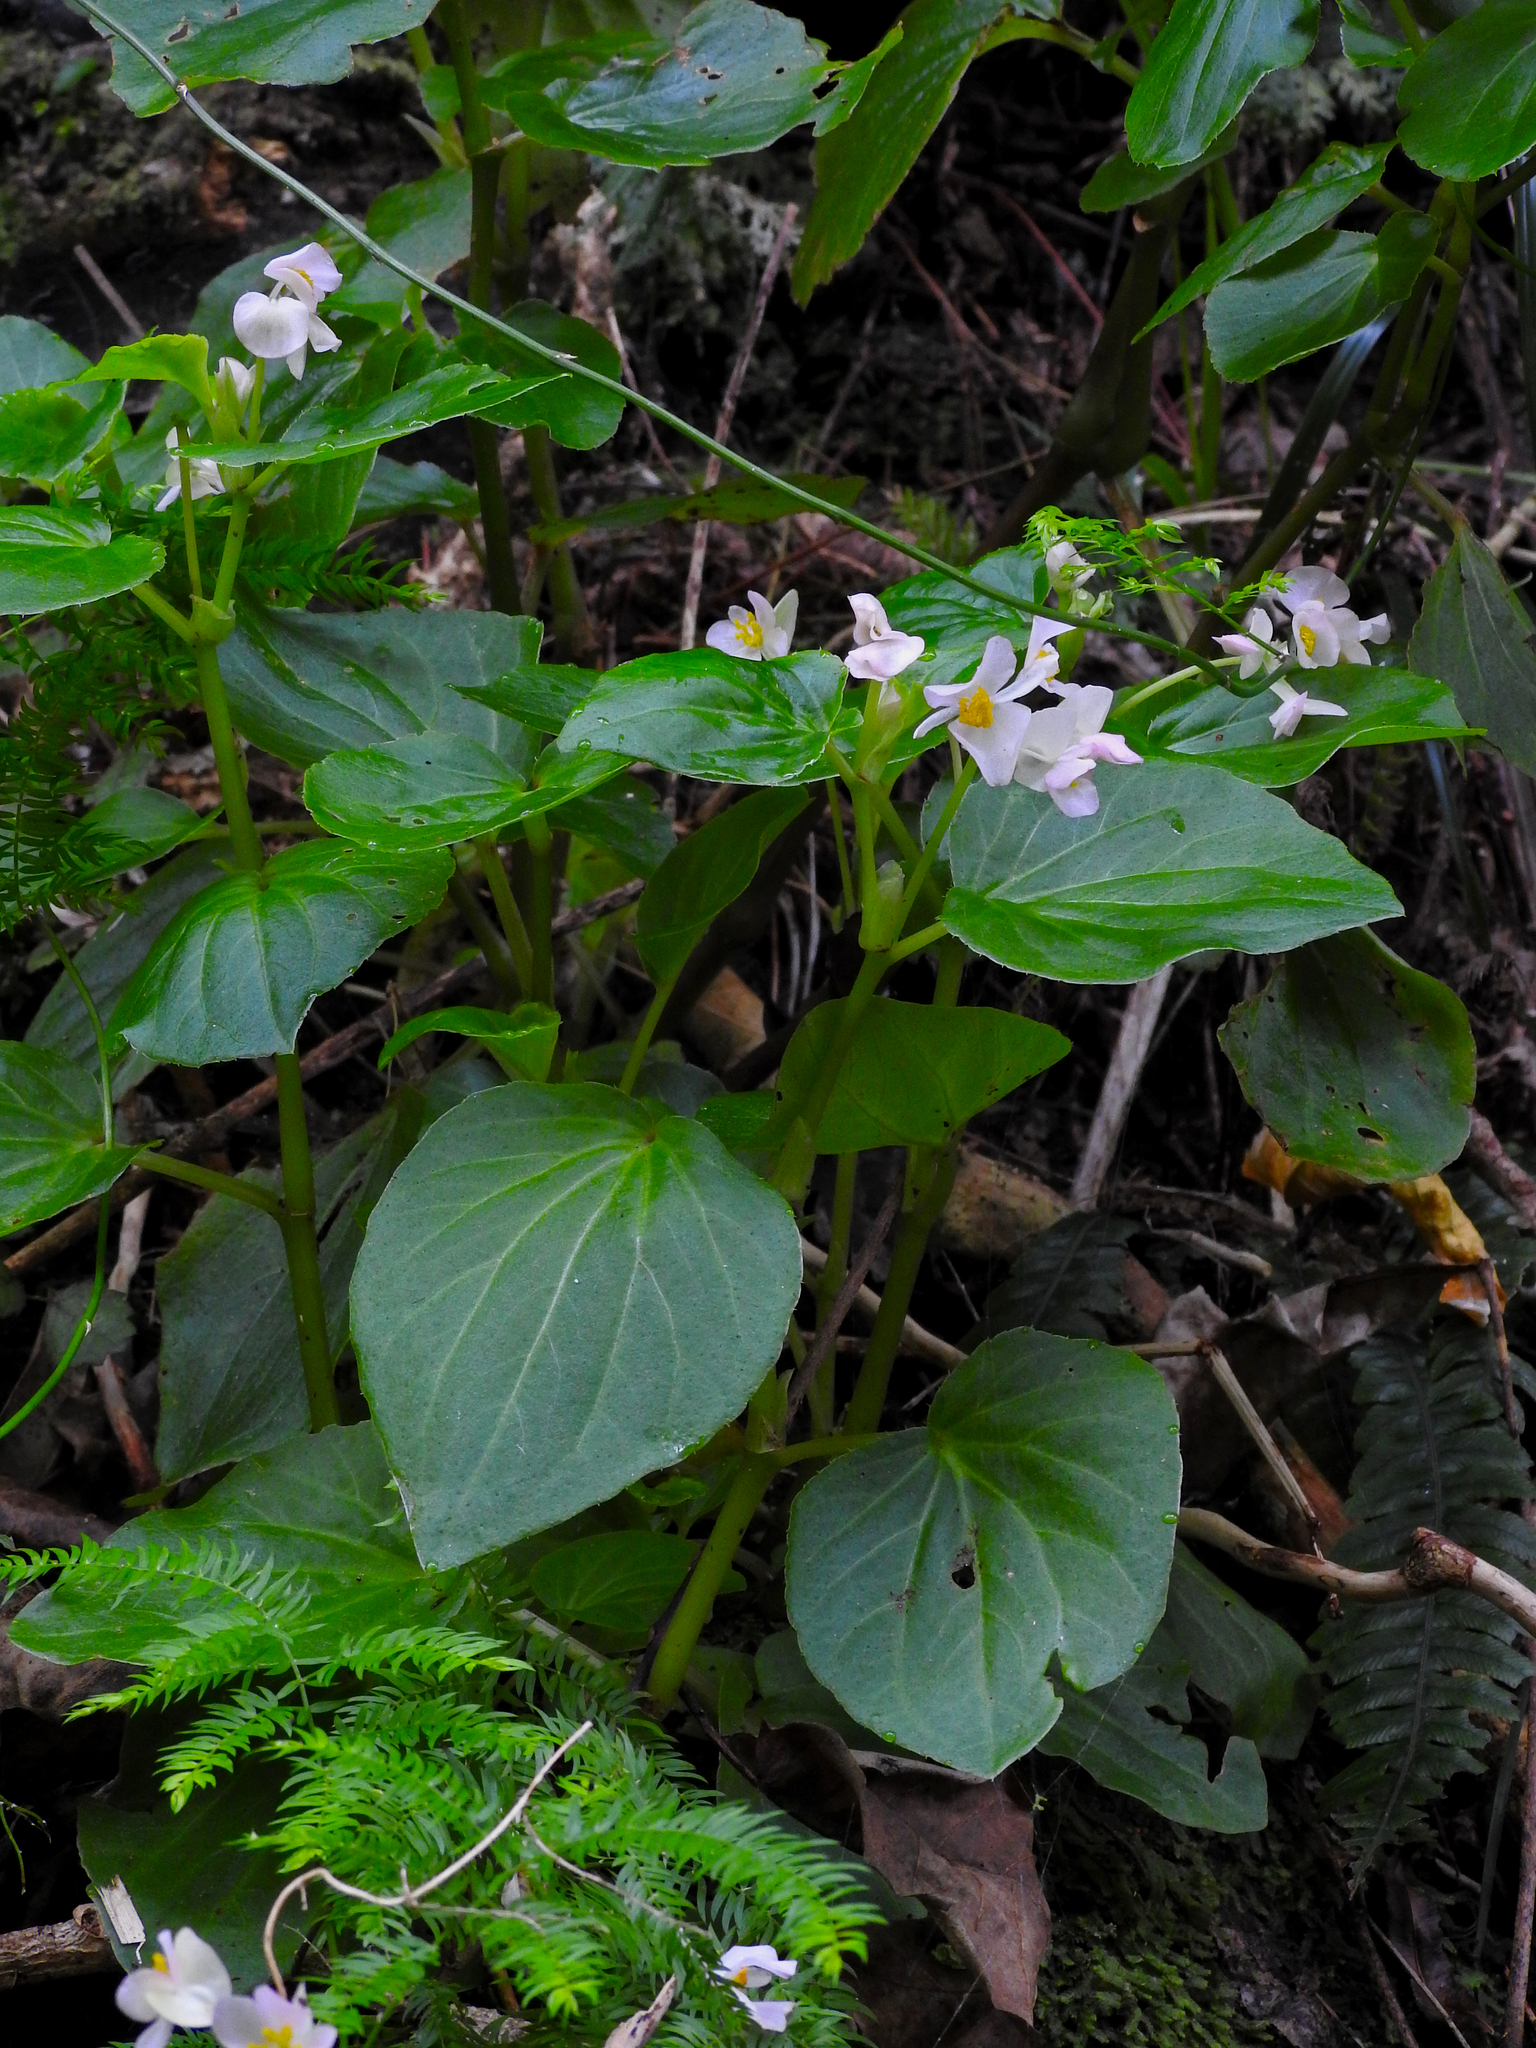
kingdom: Plantae
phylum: Tracheophyta
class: Magnoliopsida
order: Cucurbitales
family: Begoniaceae
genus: Begonia
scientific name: Begonia semperflorens-cultorum
